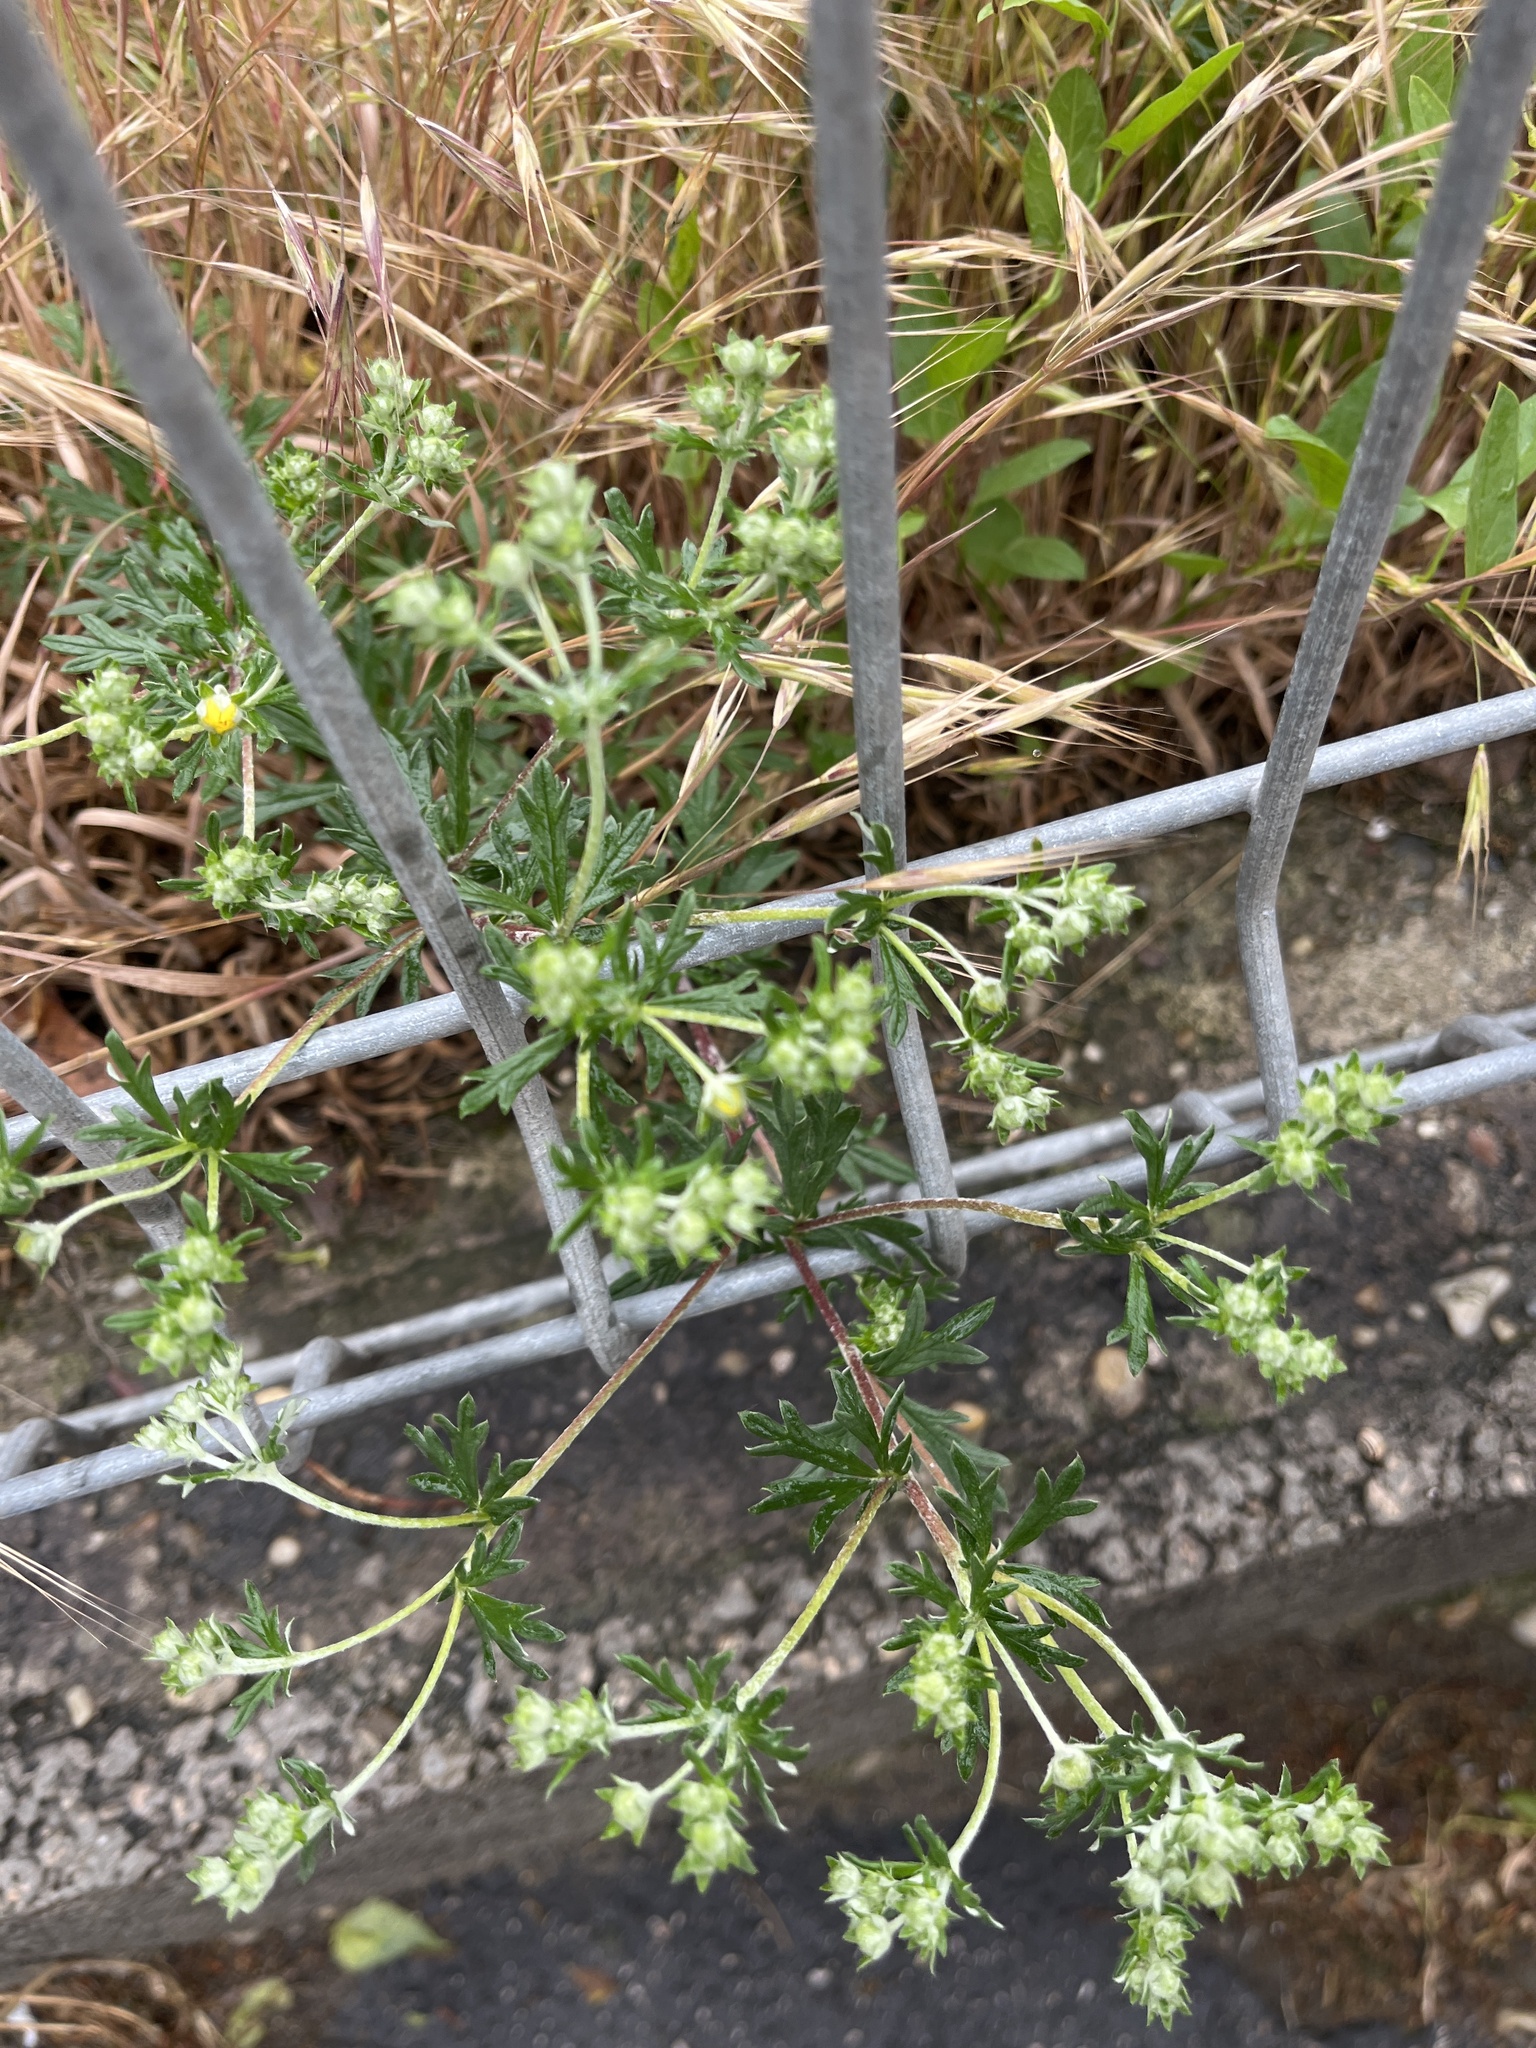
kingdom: Plantae
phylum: Tracheophyta
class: Magnoliopsida
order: Rosales
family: Rosaceae
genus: Potentilla
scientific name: Potentilla argentea
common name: Hoary cinquefoil
